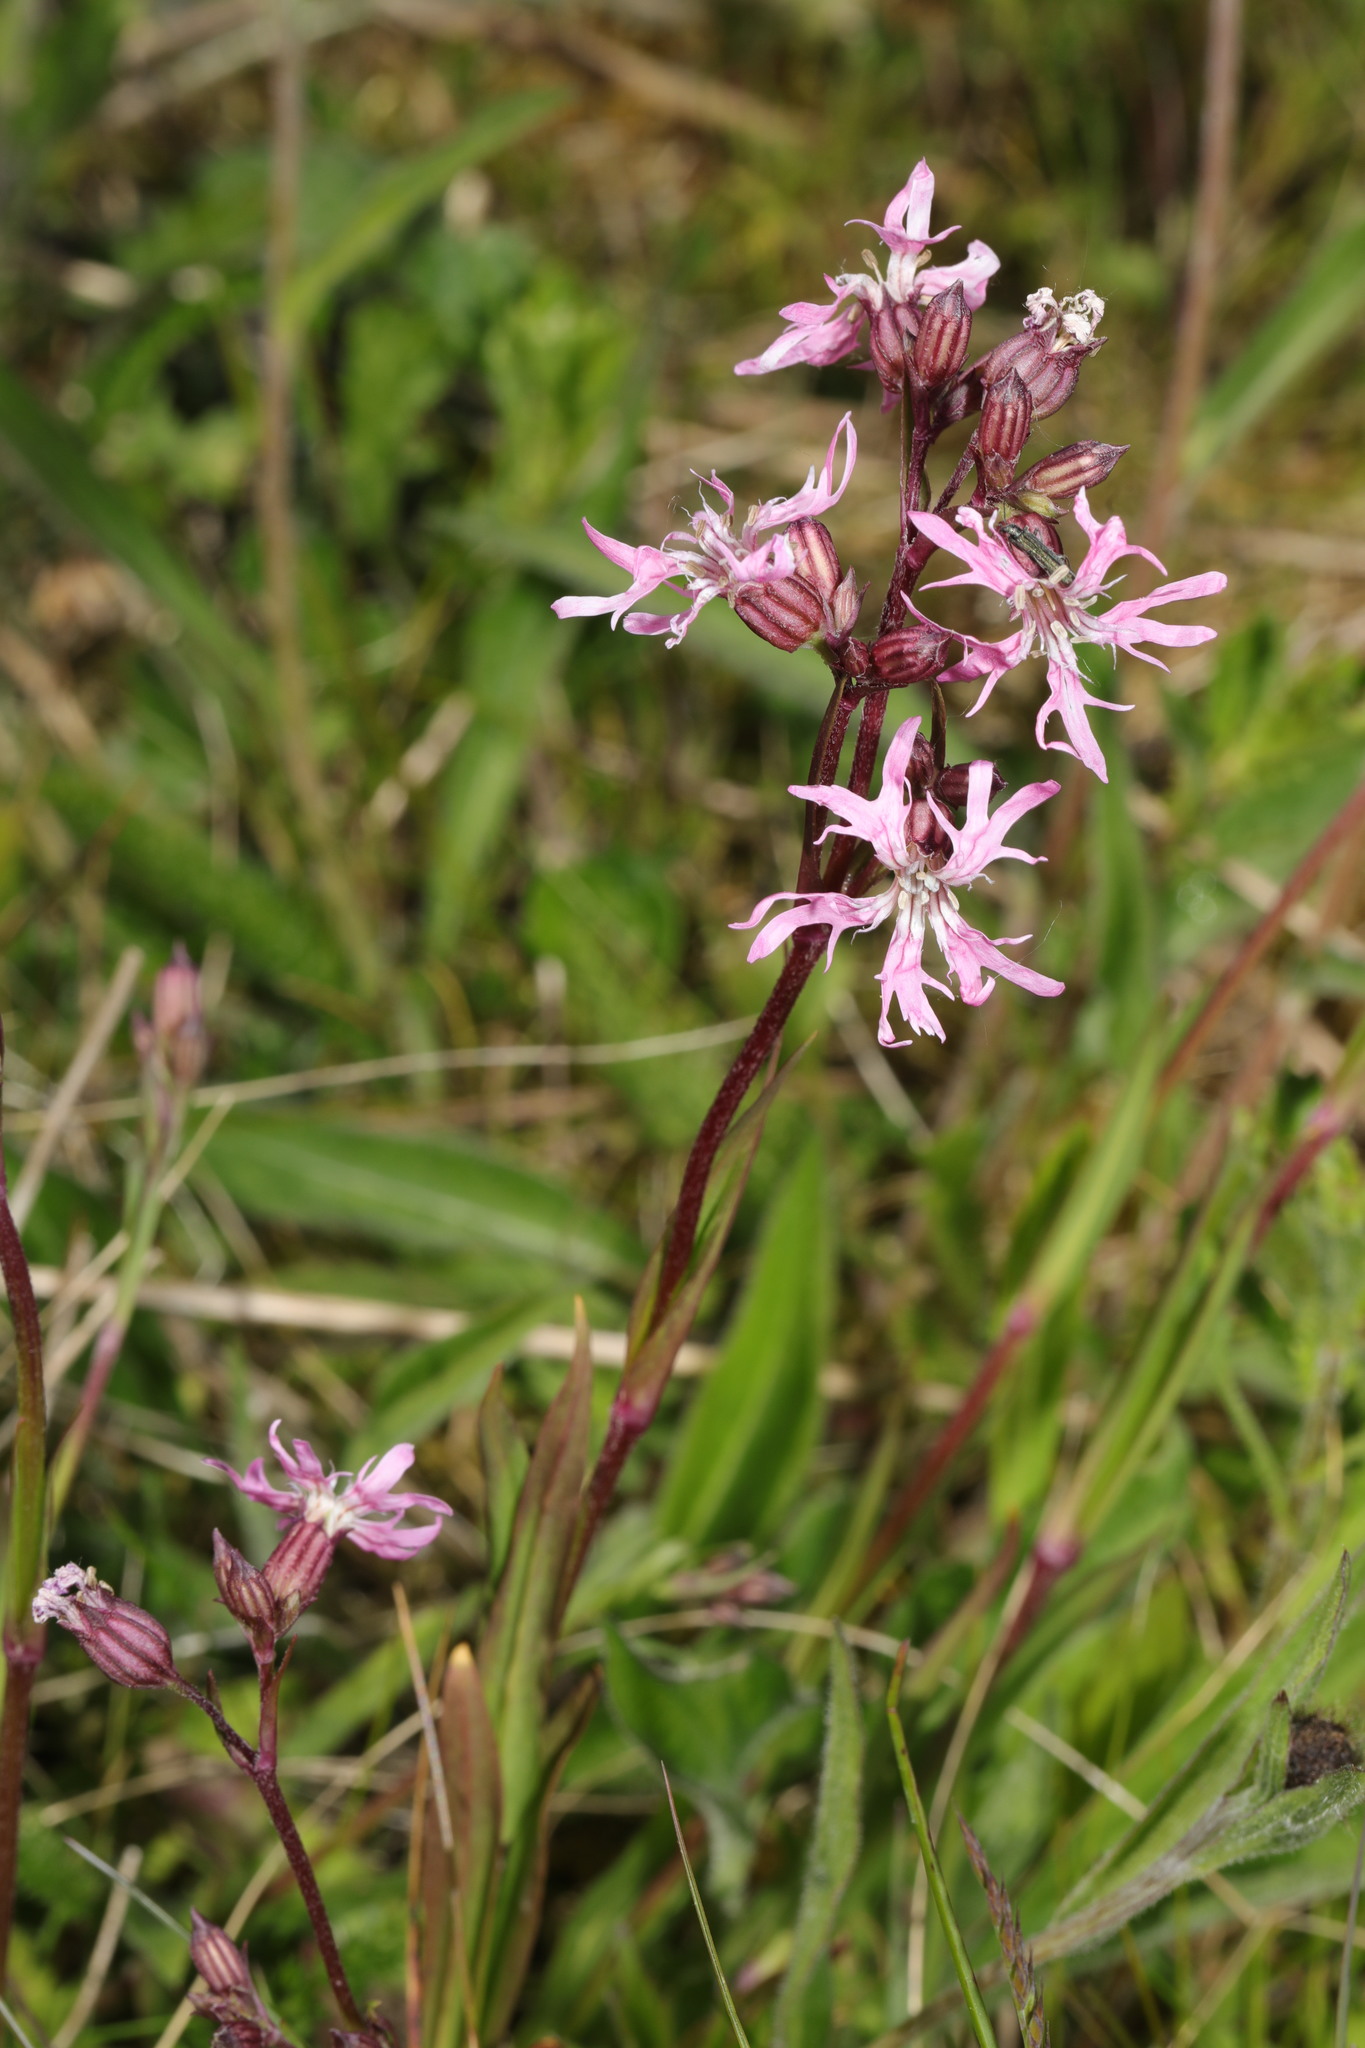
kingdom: Plantae
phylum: Tracheophyta
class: Magnoliopsida
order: Caryophyllales
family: Caryophyllaceae
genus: Silene
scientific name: Silene flos-cuculi
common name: Ragged-robin
